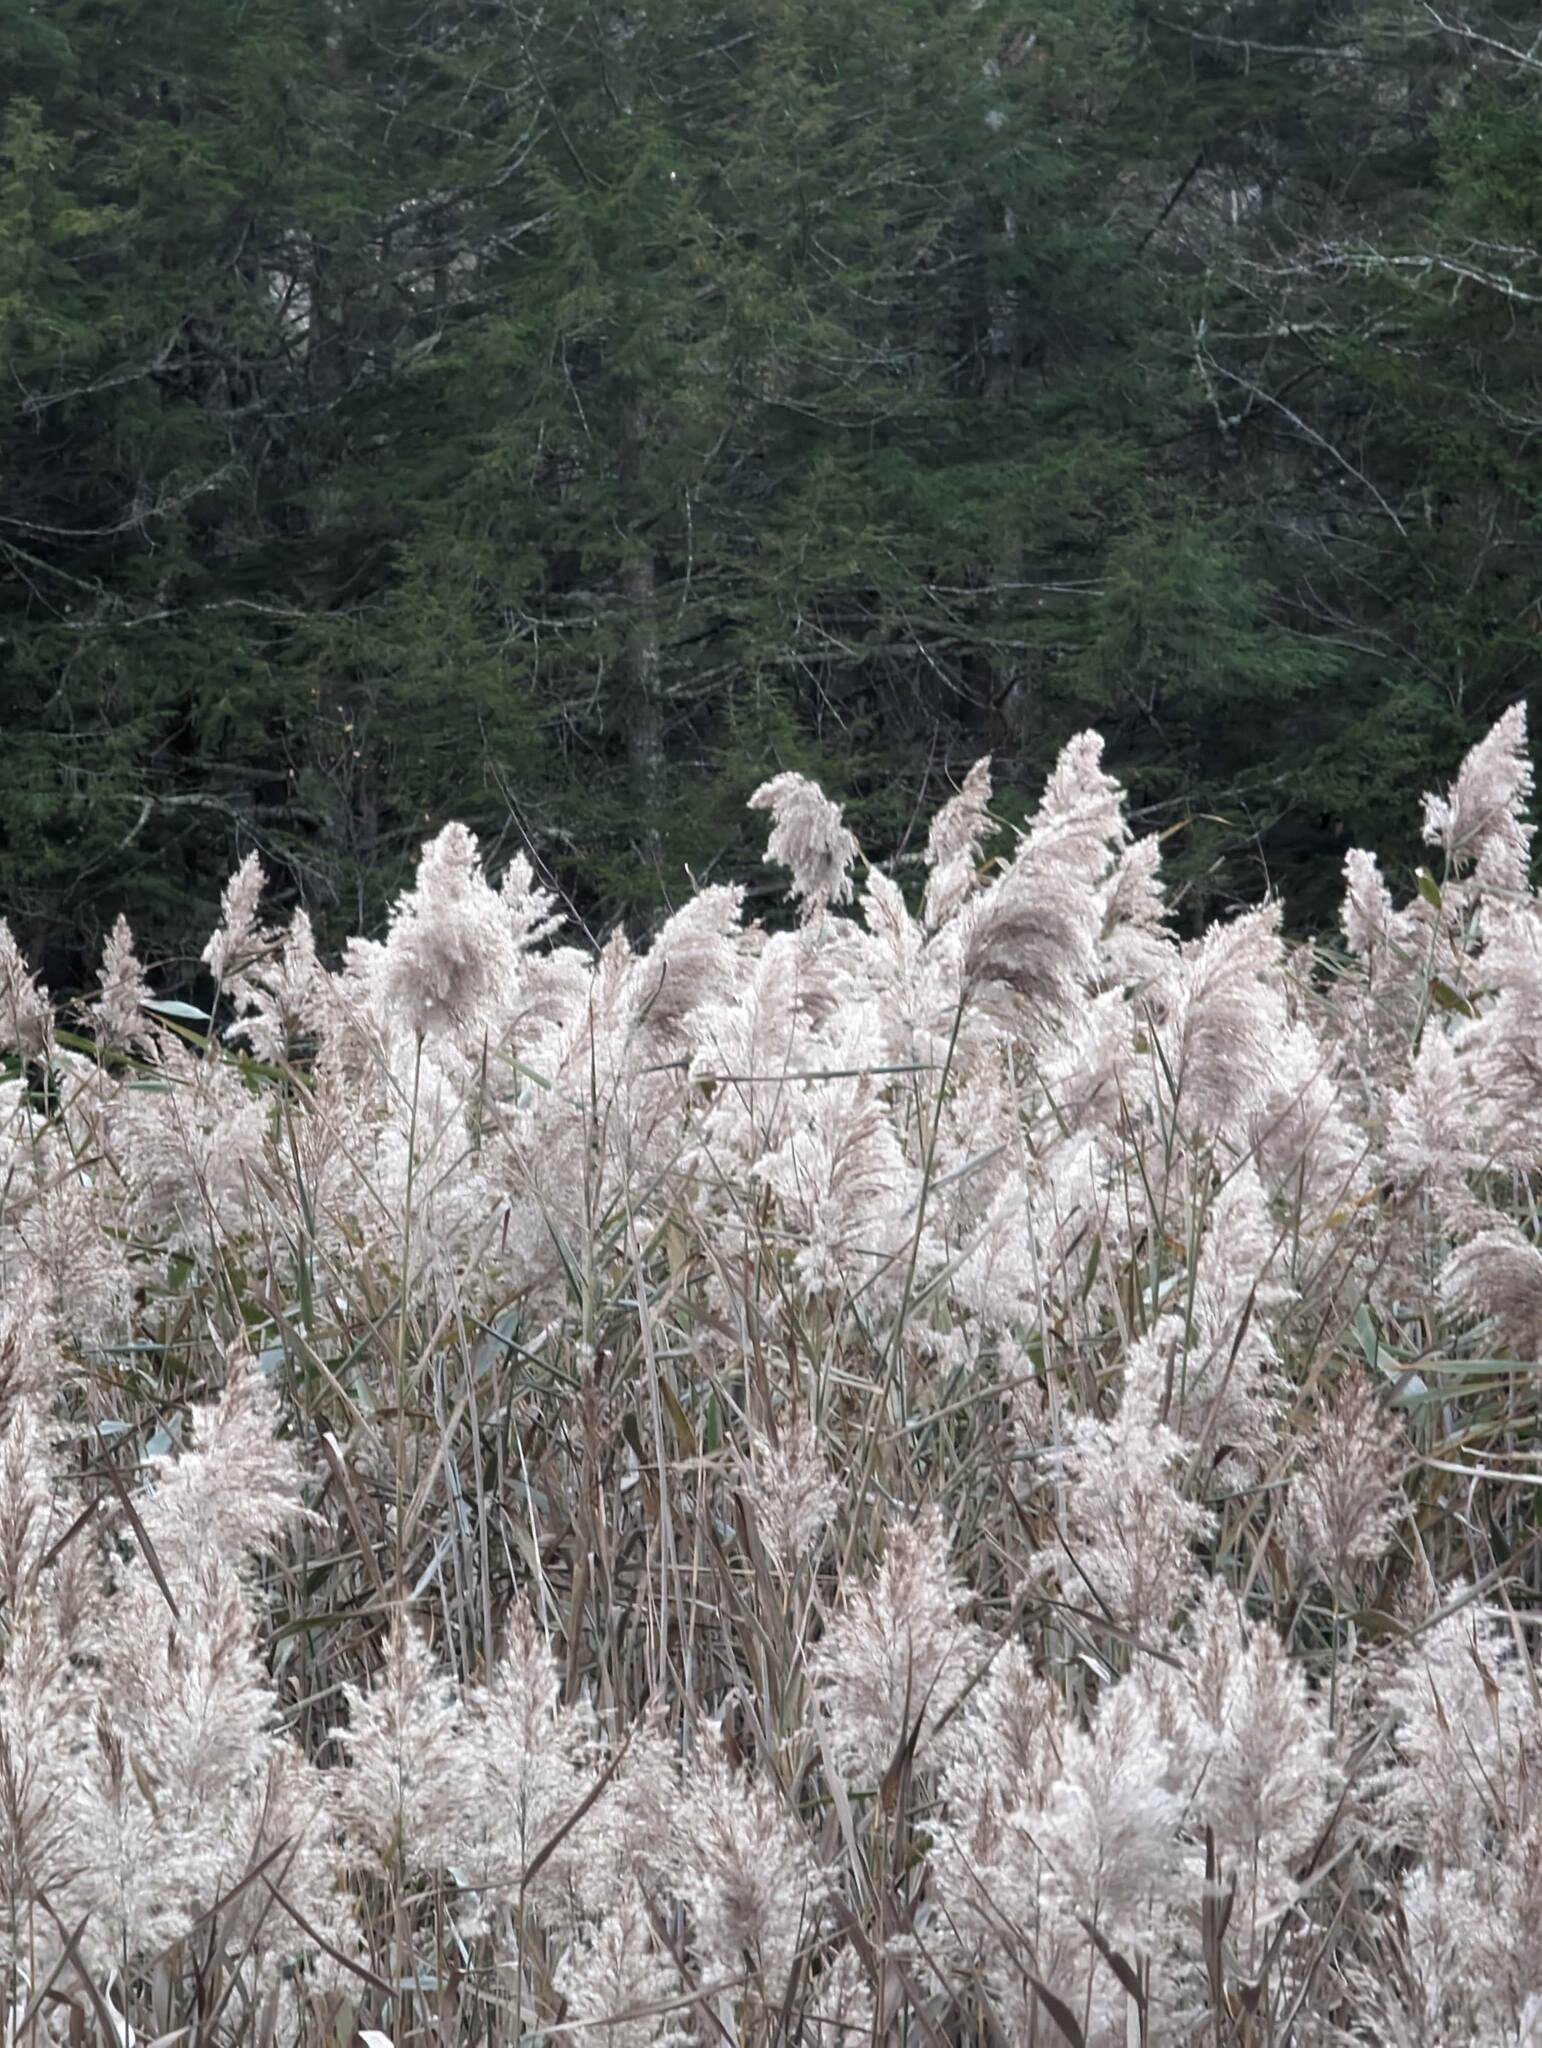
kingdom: Plantae
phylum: Tracheophyta
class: Liliopsida
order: Poales
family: Poaceae
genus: Phragmites
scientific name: Phragmites australis
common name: Common reed
